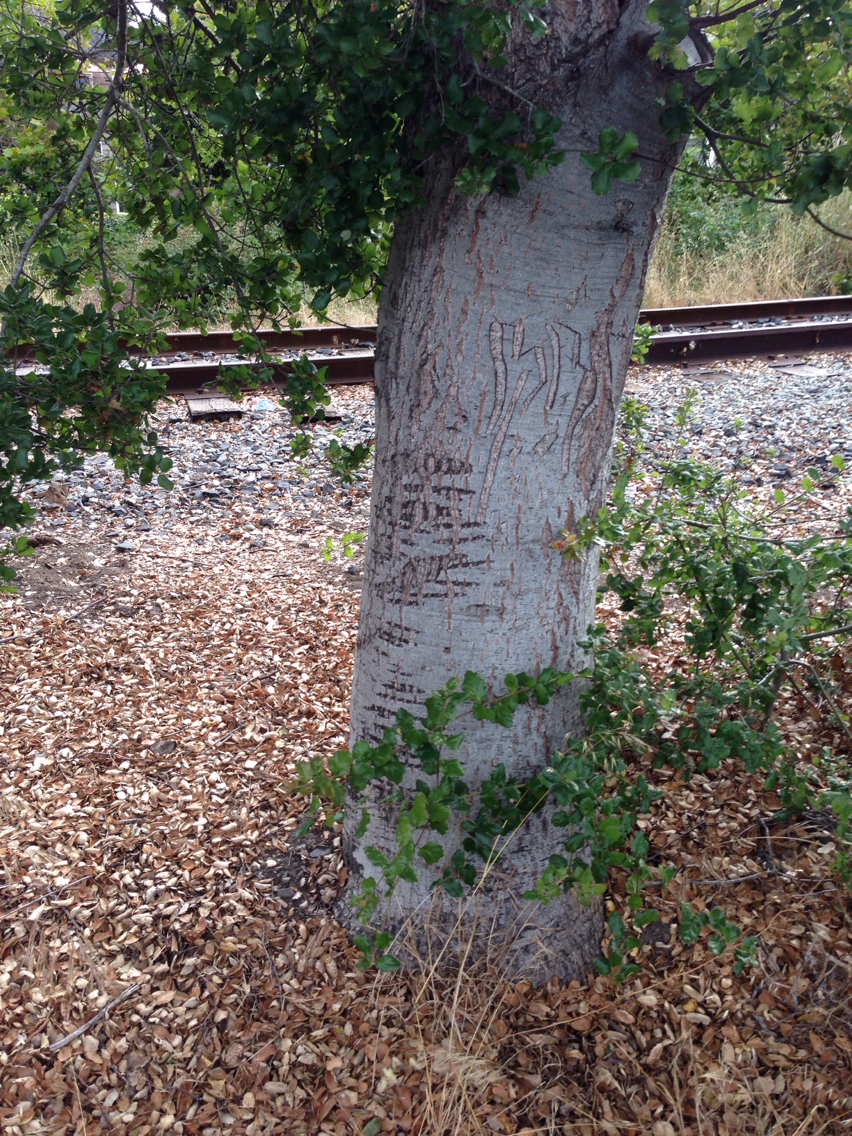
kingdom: Plantae
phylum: Tracheophyta
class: Magnoliopsida
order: Fagales
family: Fagaceae
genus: Quercus
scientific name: Quercus agrifolia
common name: California live oak
